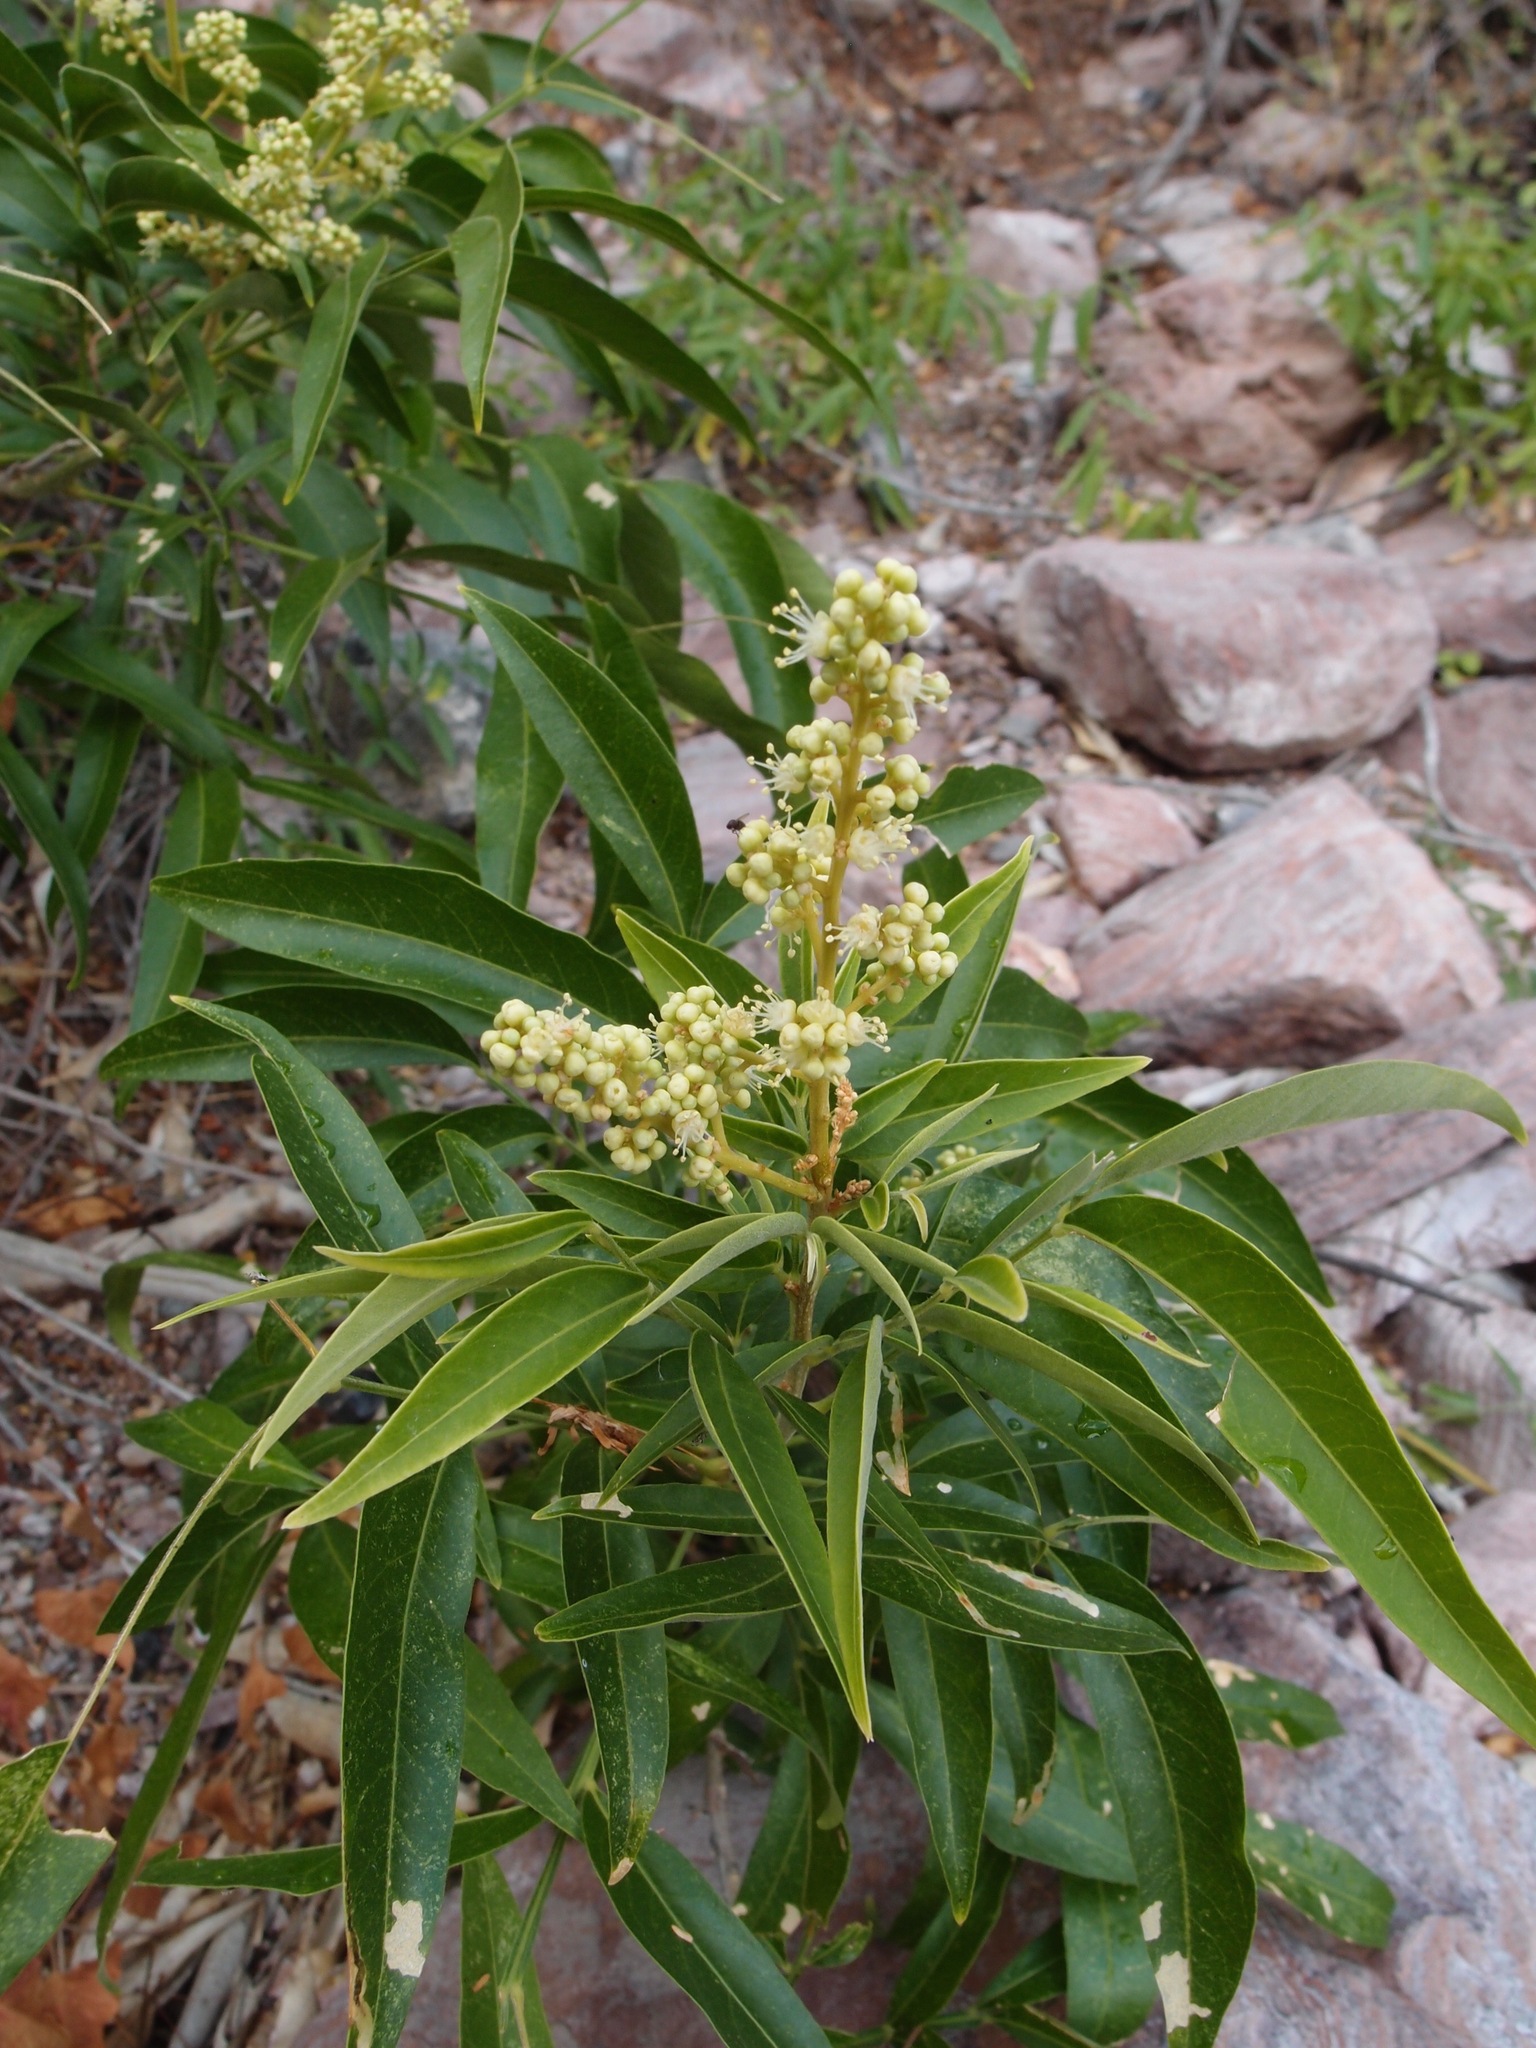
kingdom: Plantae
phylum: Tracheophyta
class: Magnoliopsida
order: Sapindales
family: Sapindaceae
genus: Sapindus
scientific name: Sapindus saponaria
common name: Wingleaf soapberry
